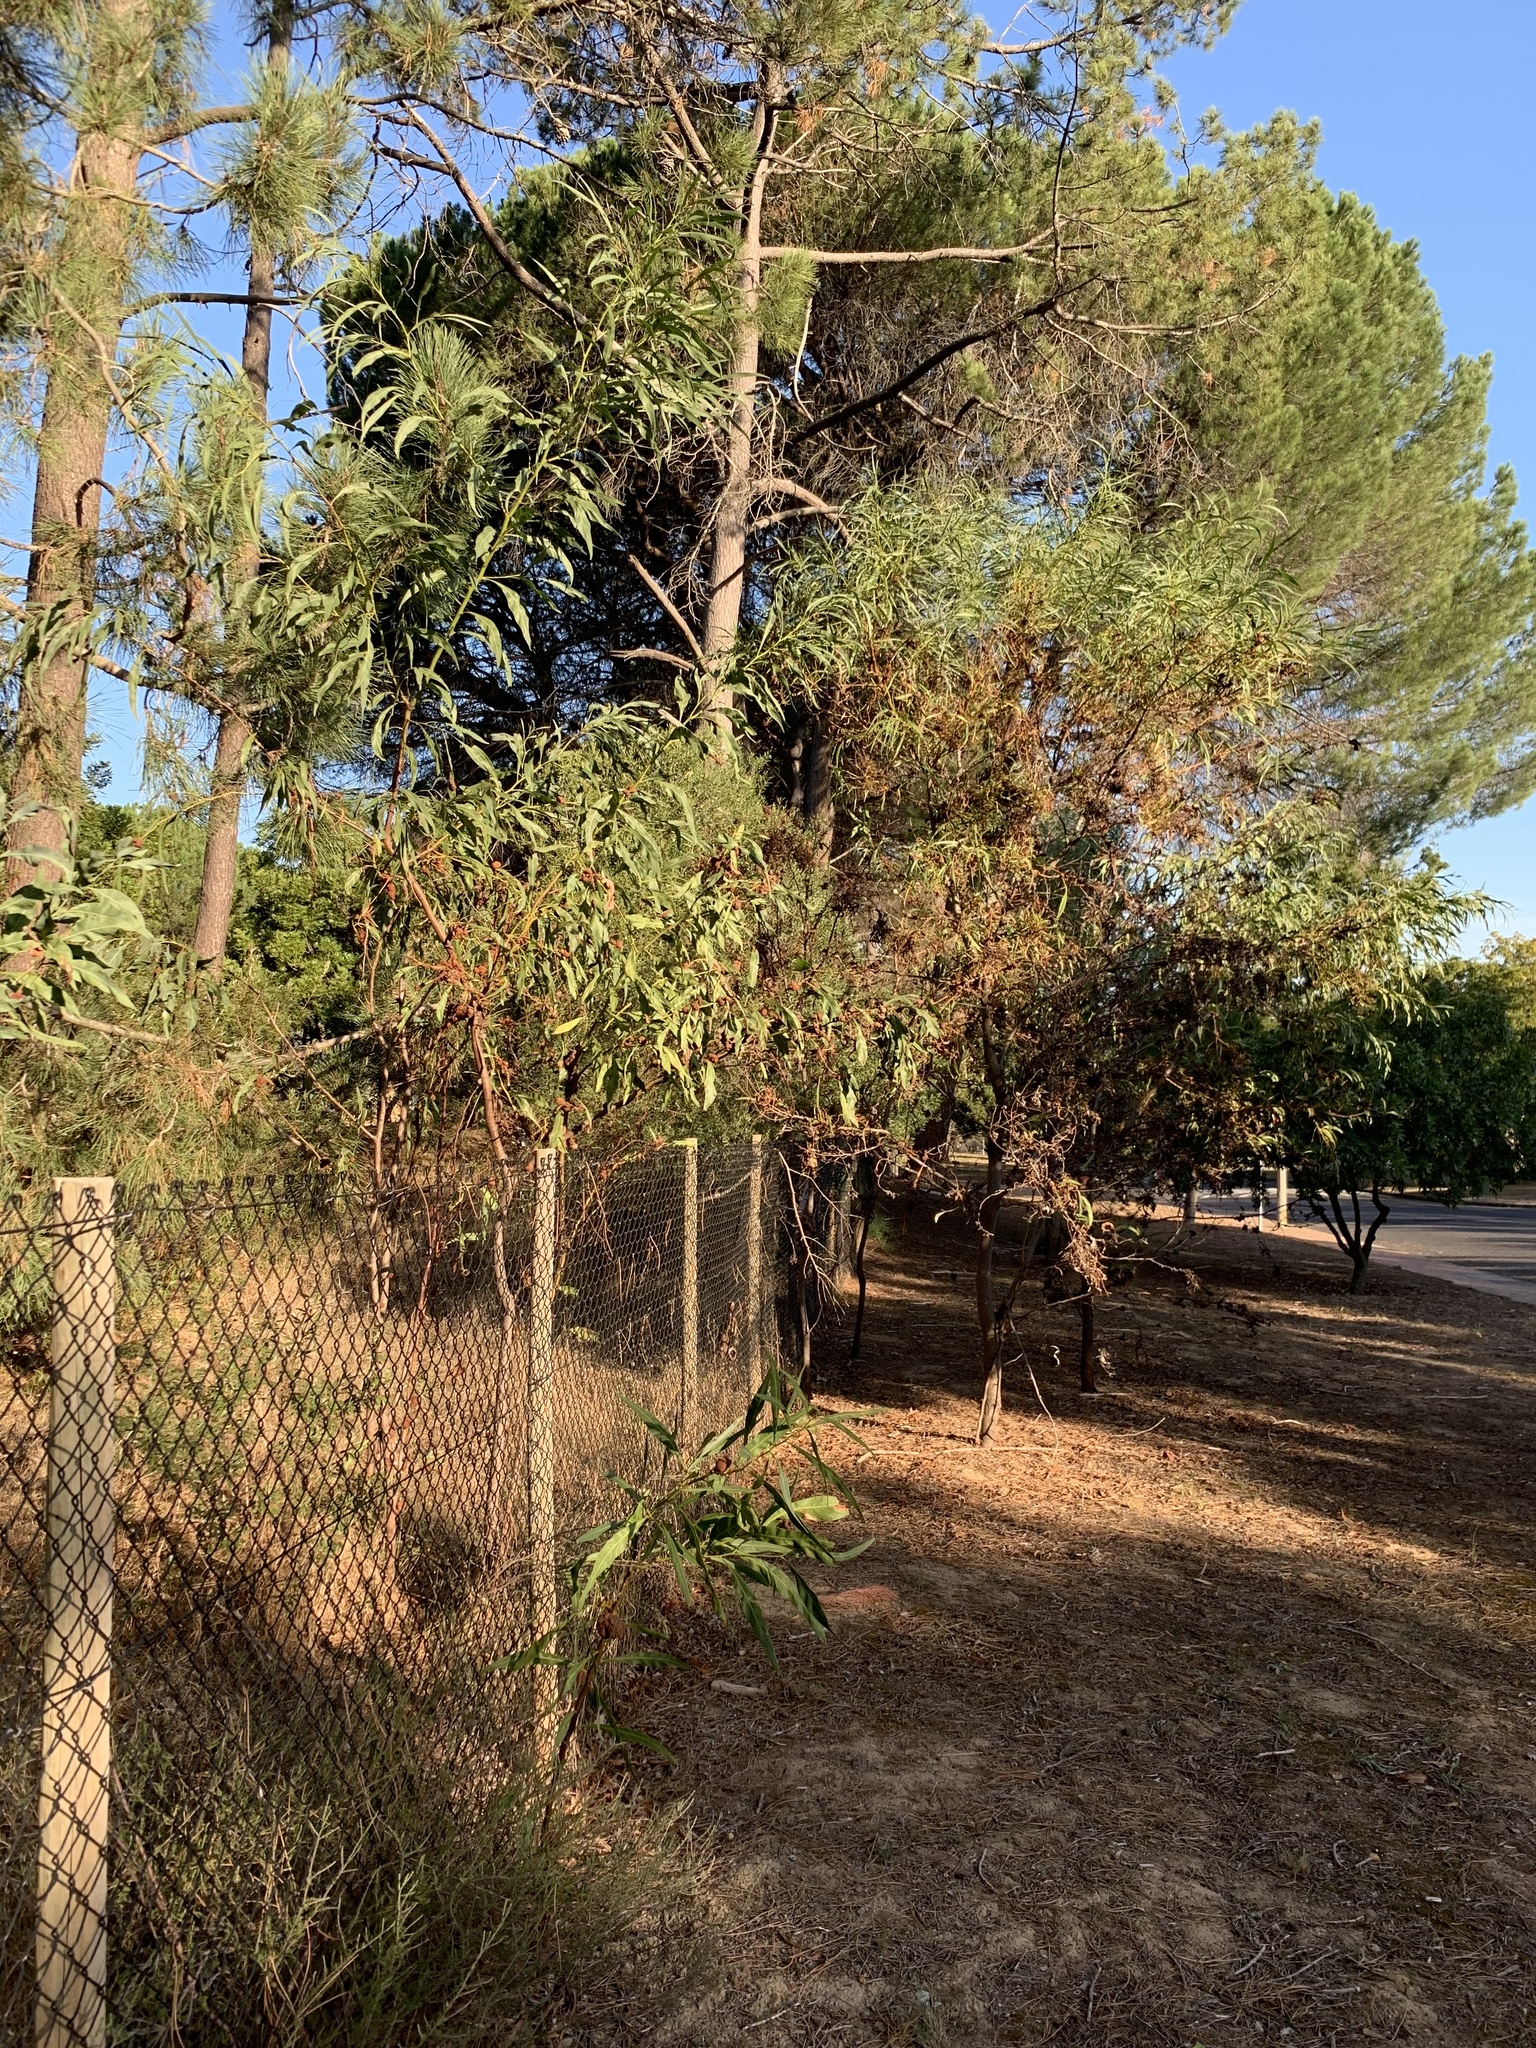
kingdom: Plantae
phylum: Tracheophyta
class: Magnoliopsida
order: Fabales
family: Fabaceae
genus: Acacia
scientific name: Acacia saligna
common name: Orange wattle
